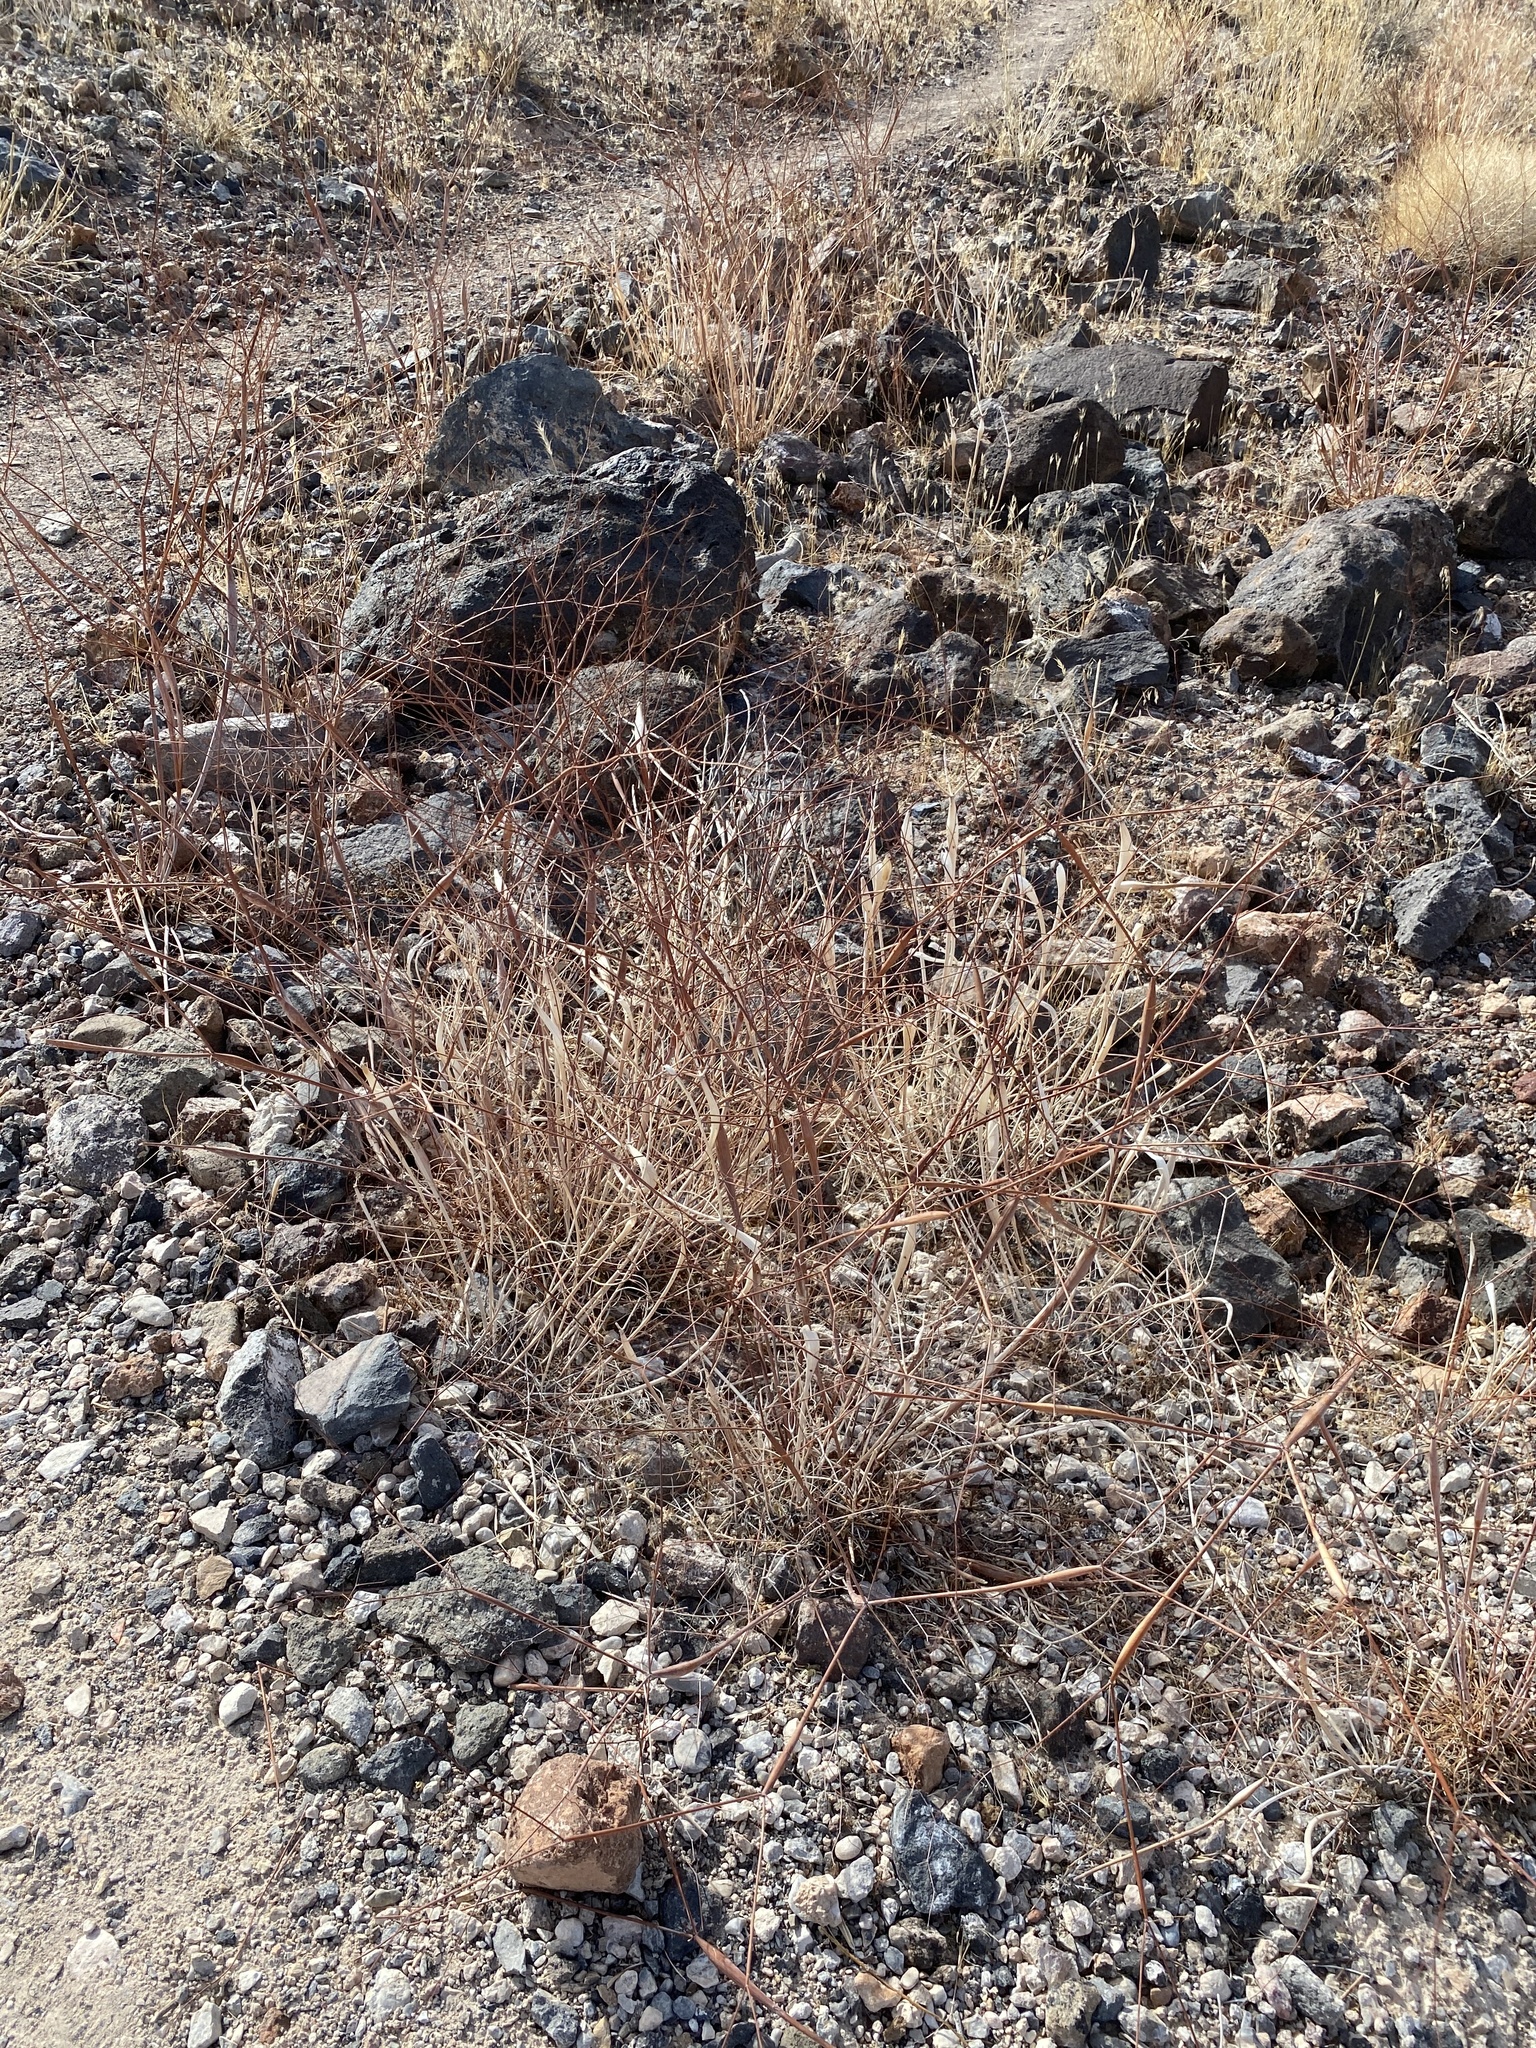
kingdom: Plantae
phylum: Tracheophyta
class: Magnoliopsida
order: Caryophyllales
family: Polygonaceae
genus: Eriogonum
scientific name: Eriogonum inflatum
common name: Desert trumpet
